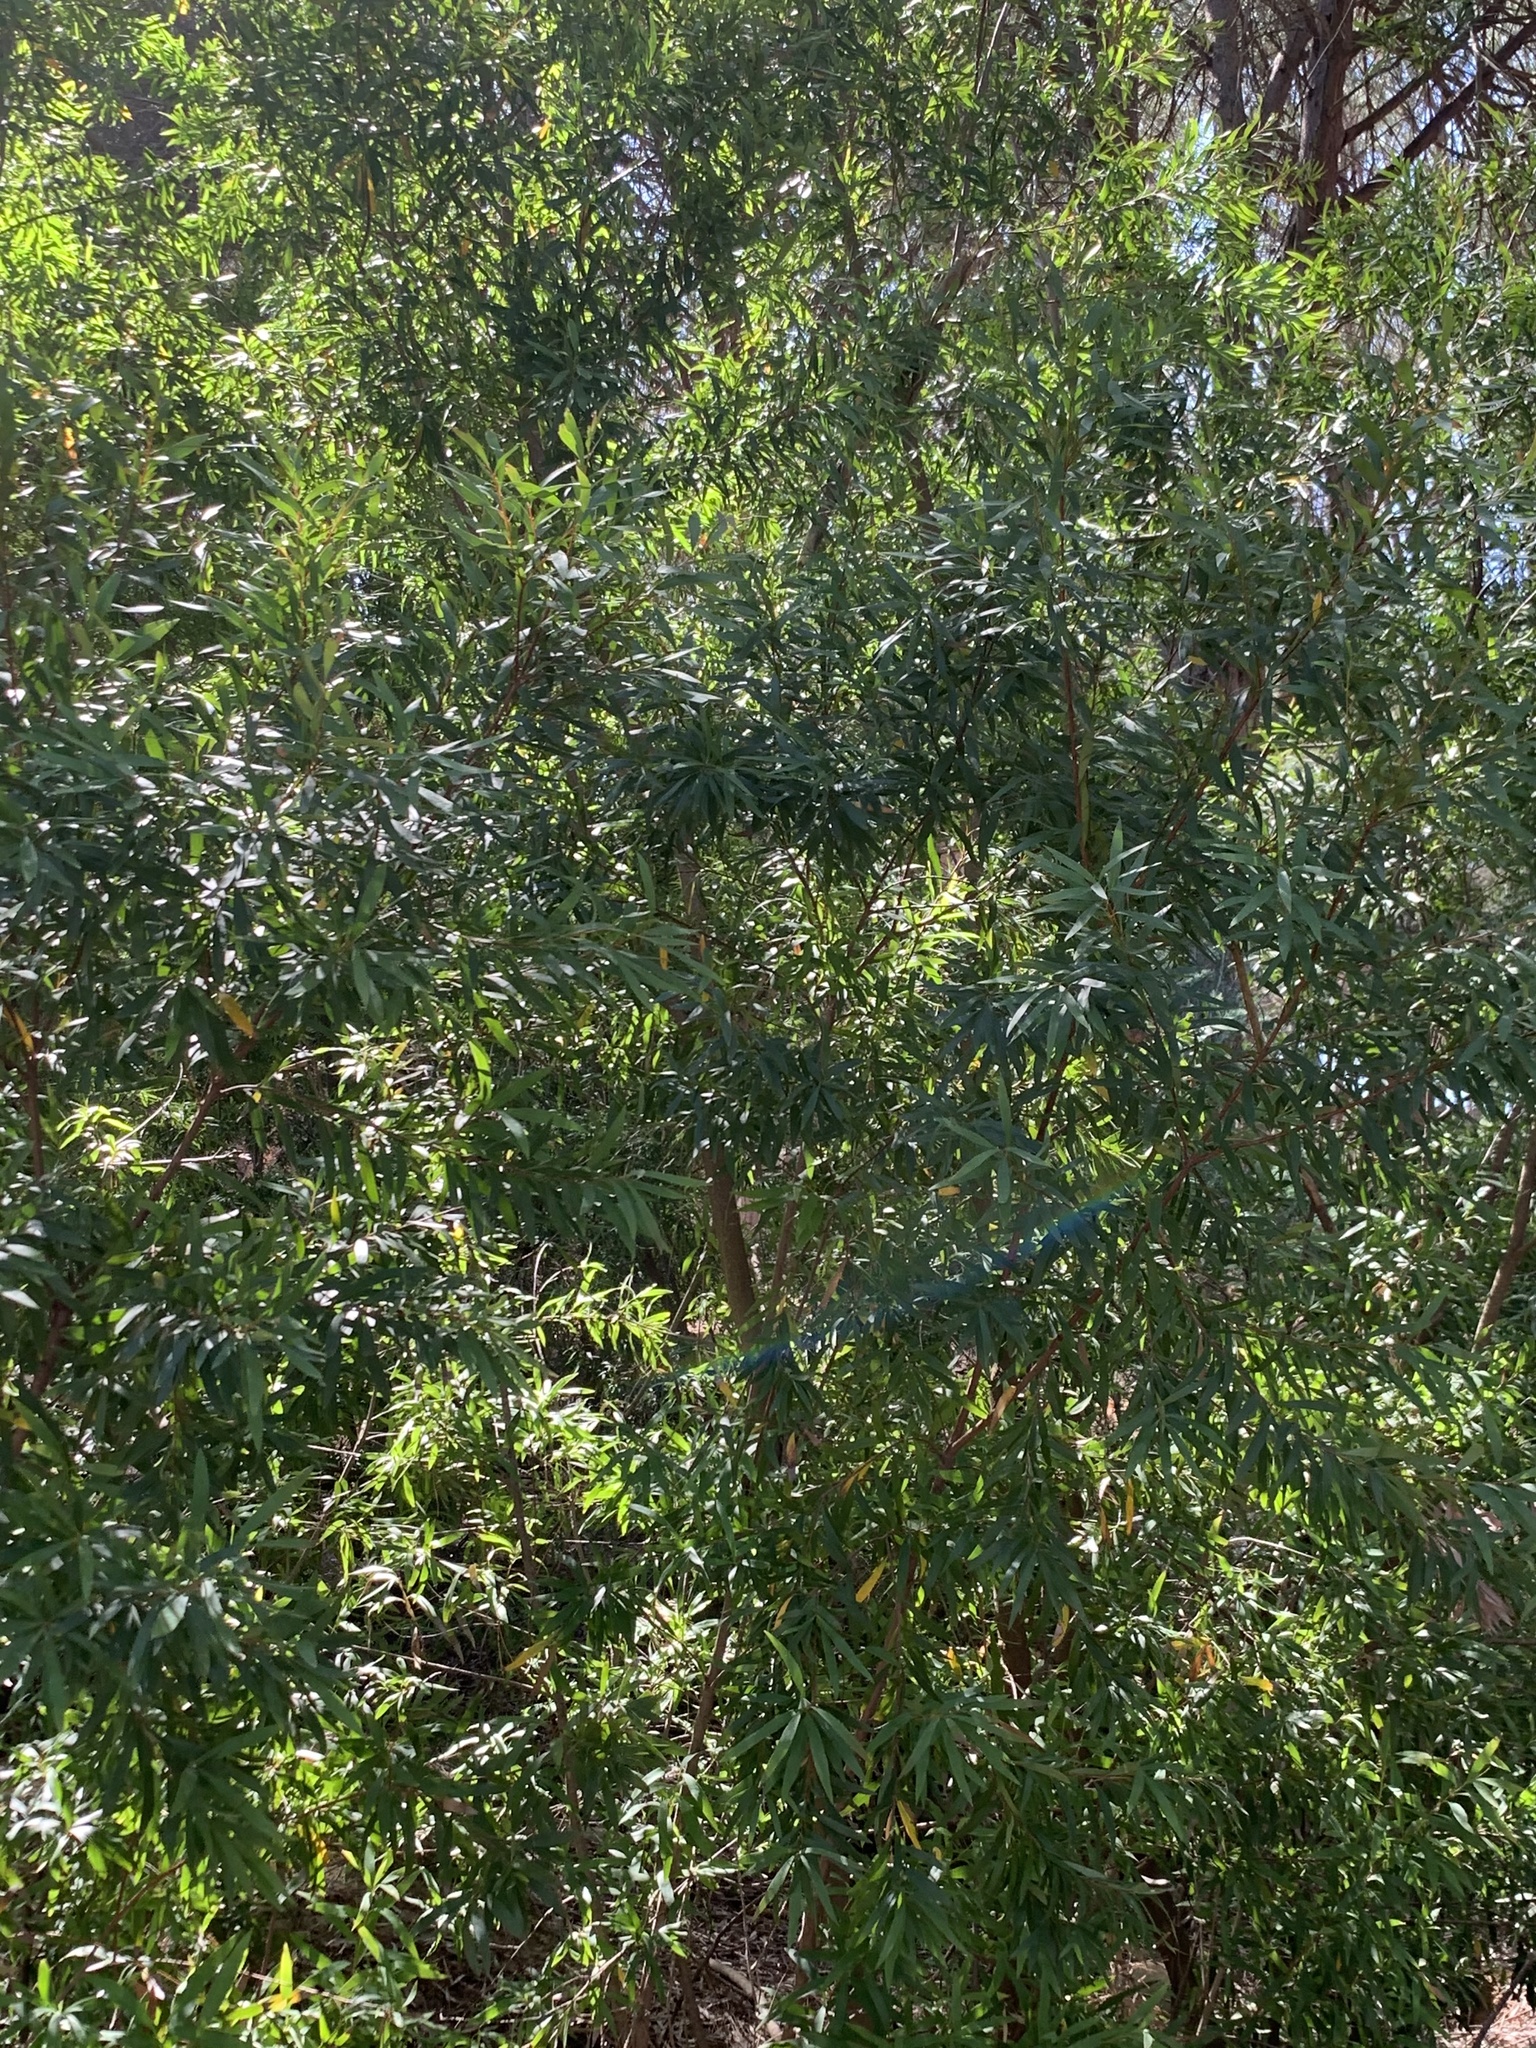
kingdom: Plantae
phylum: Tracheophyta
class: Magnoliopsida
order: Proteales
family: Proteaceae
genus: Hakea
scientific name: Hakea salicifolia
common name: Willow hakea
